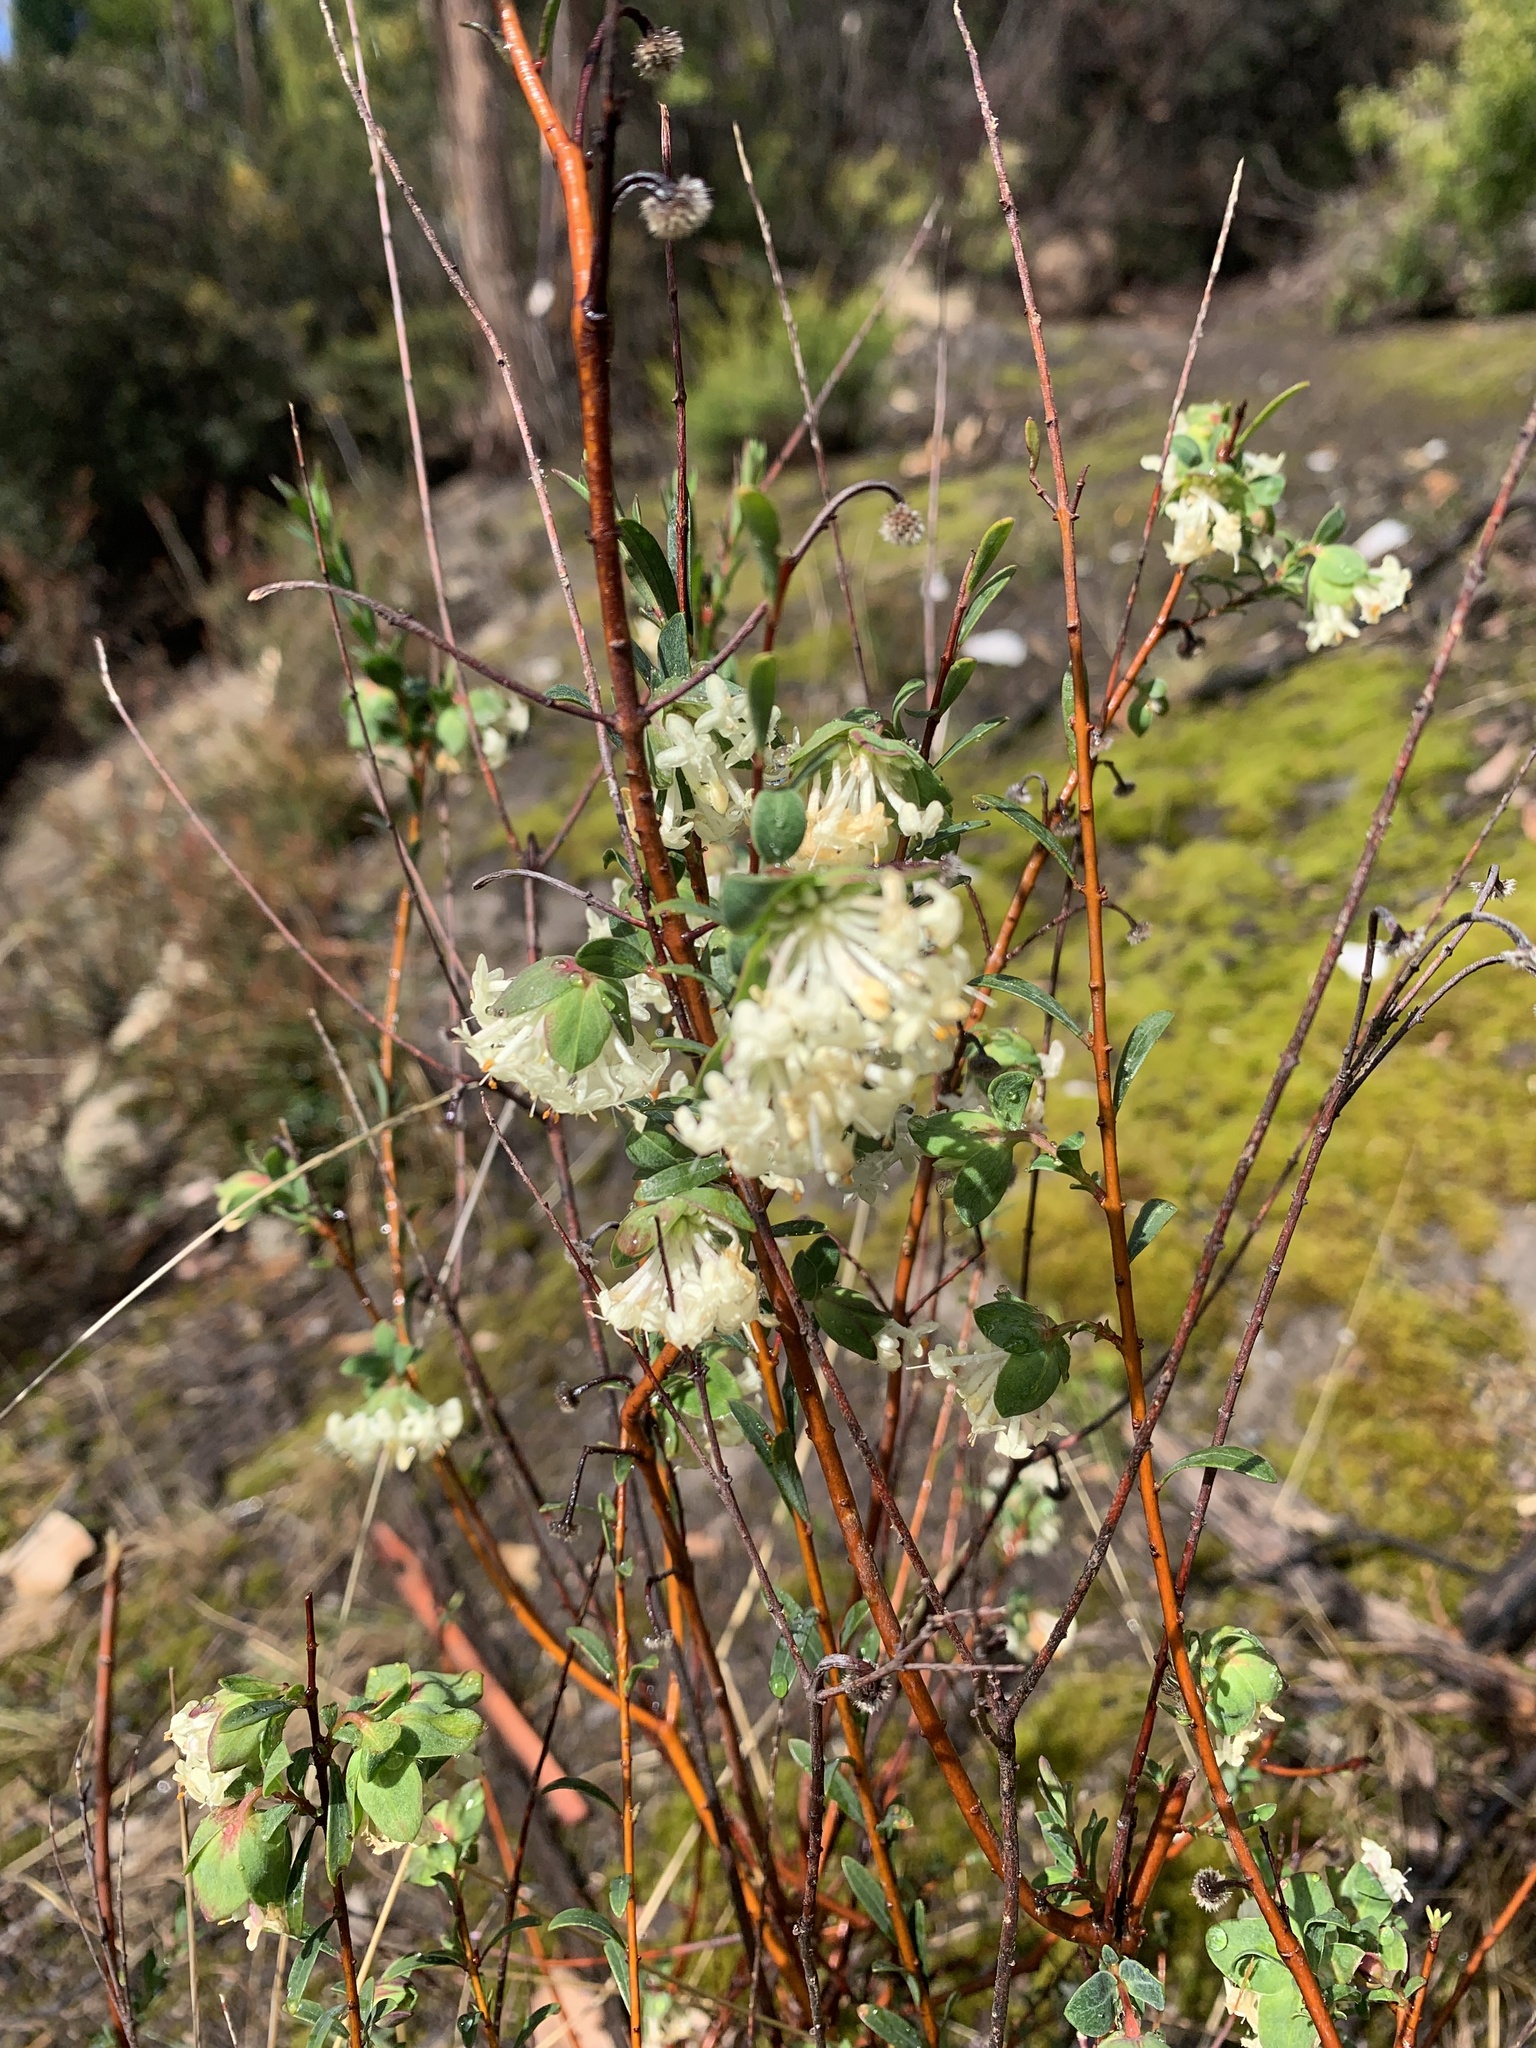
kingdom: Plantae
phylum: Tracheophyta
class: Magnoliopsida
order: Malvales
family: Thymelaeaceae
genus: Pimelea
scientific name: Pimelea linifolia
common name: Queen-of-the-bush
